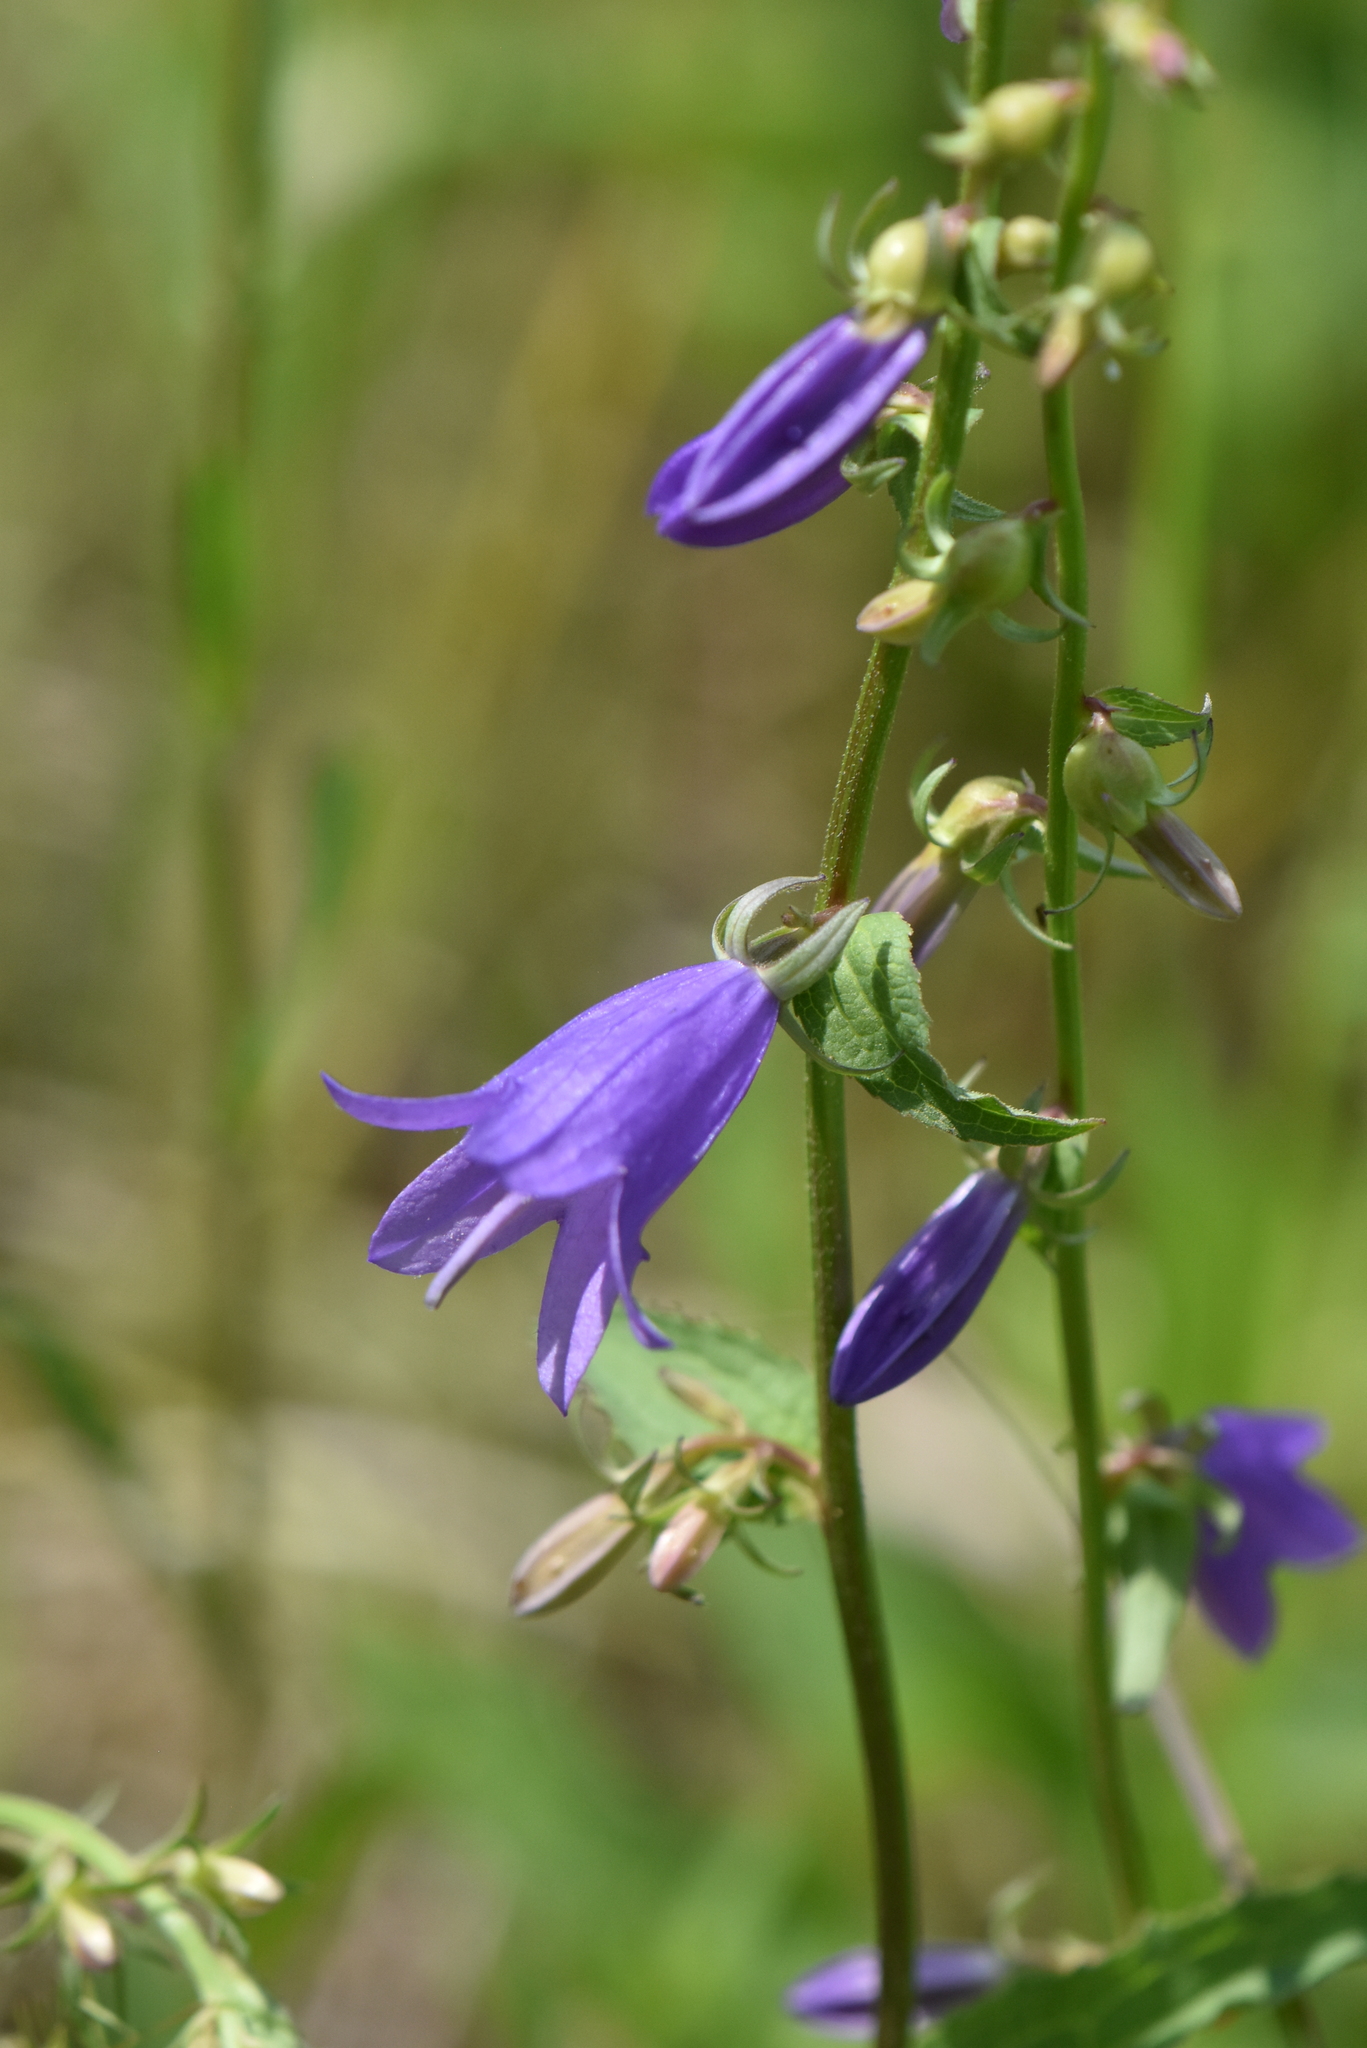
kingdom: Plantae
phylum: Tracheophyta
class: Magnoliopsida
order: Asterales
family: Campanulaceae
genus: Campanula
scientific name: Campanula rapunculoides
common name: Creeping bellflower
